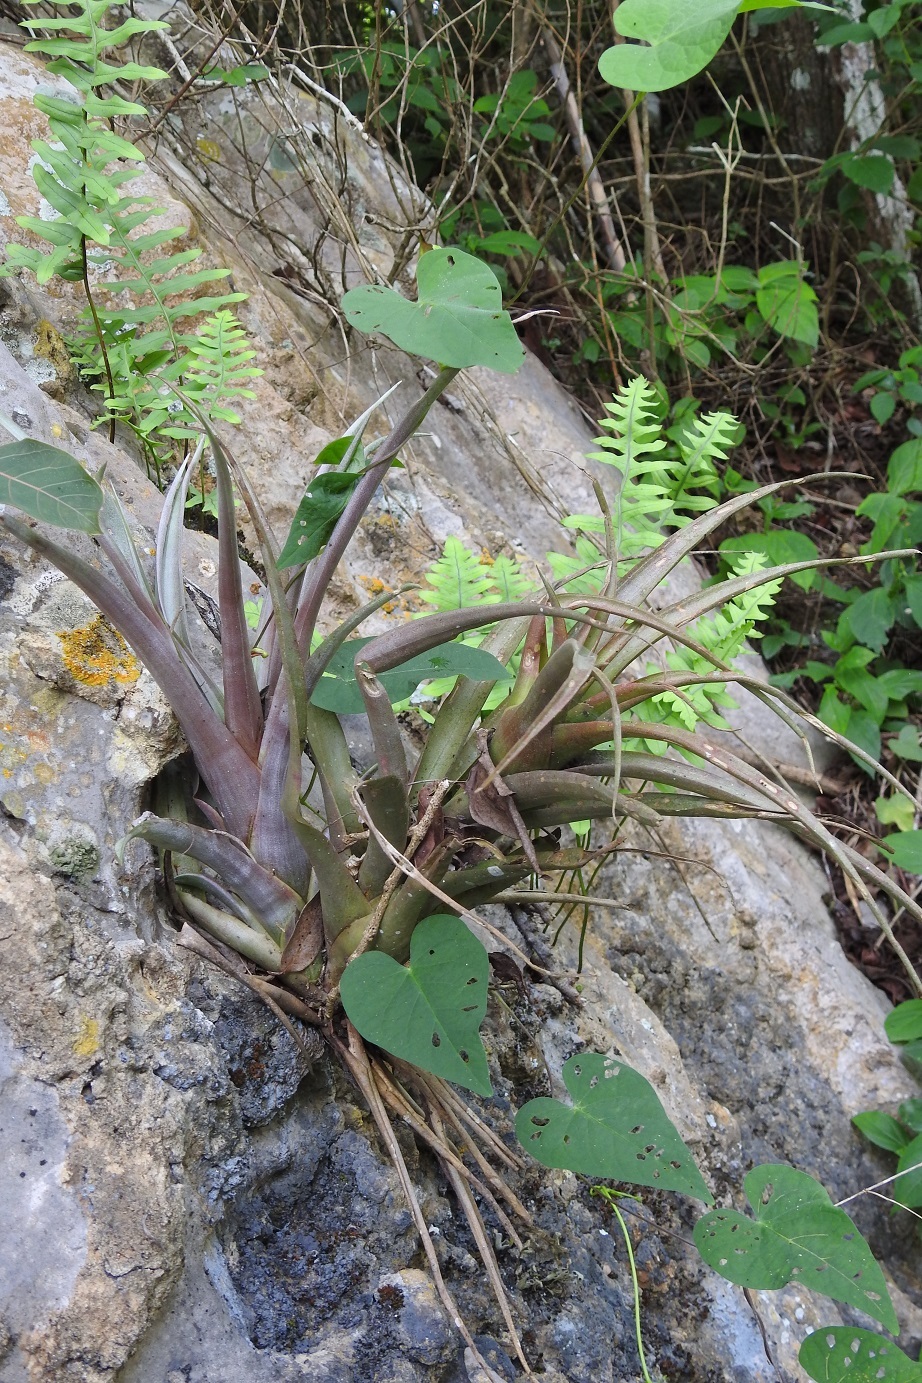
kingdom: Plantae
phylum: Tracheophyta
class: Liliopsida
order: Poales
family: Bromeliaceae
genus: Tillandsia
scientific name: Tillandsia capitata
